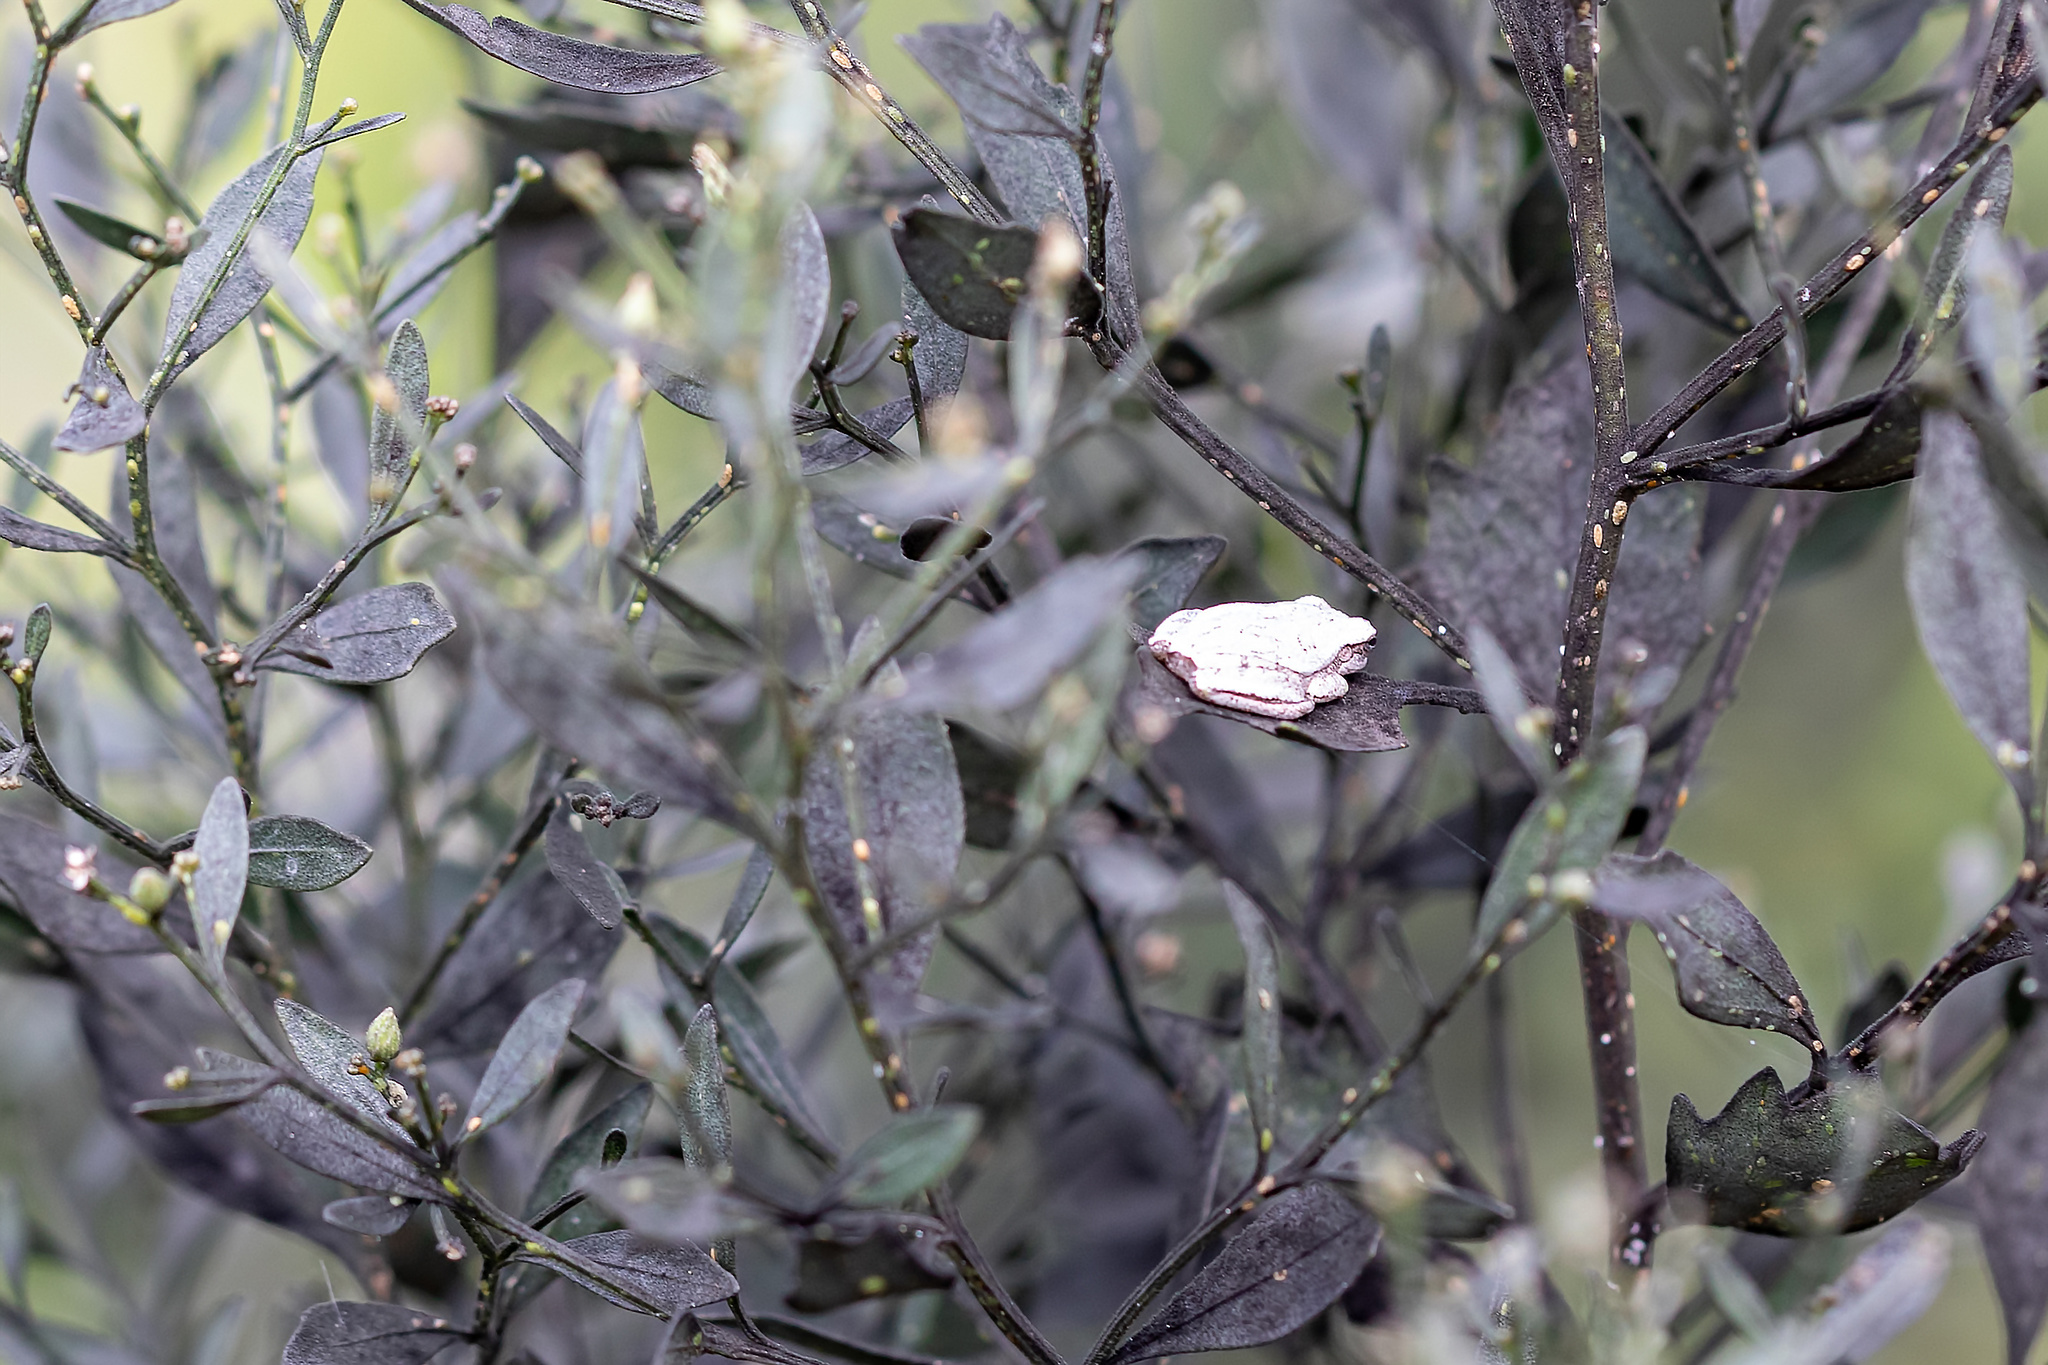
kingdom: Animalia
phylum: Chordata
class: Amphibia
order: Anura
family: Hylidae
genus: Hyla
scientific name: Hyla femoralis
